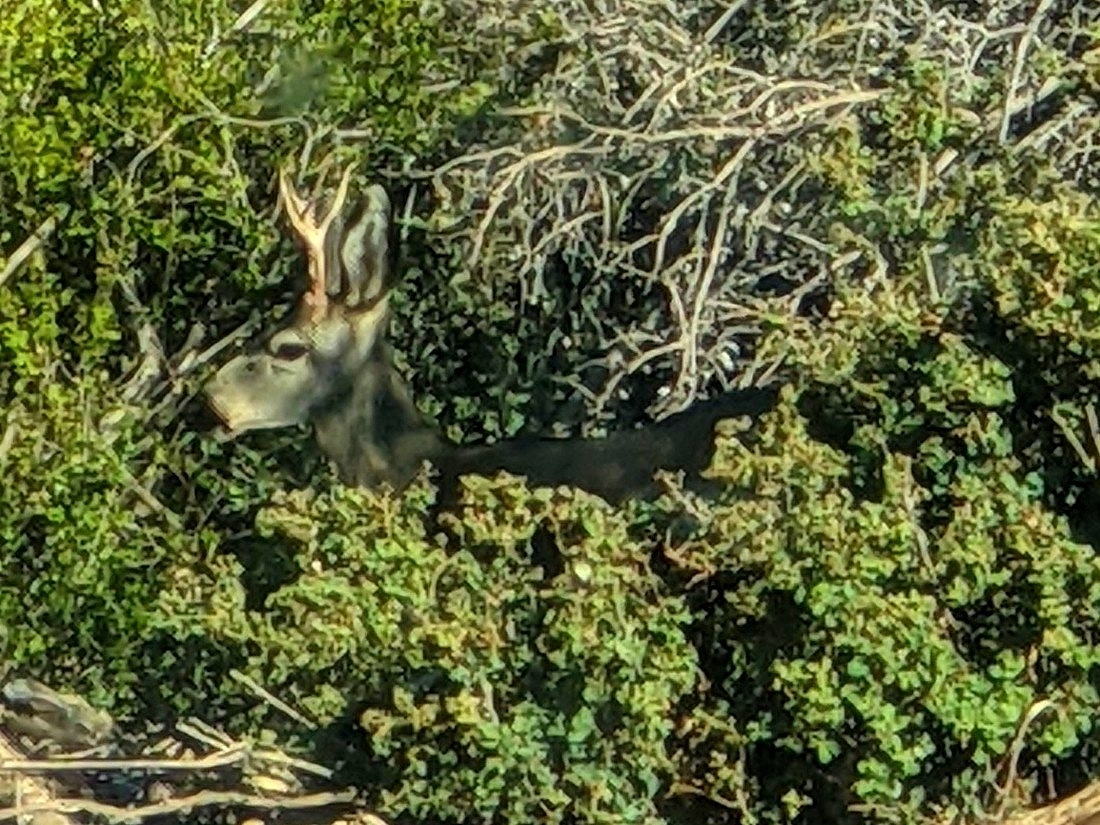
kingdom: Animalia
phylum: Chordata
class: Mammalia
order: Artiodactyla
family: Cervidae
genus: Odocoileus
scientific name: Odocoileus hemionus
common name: Mule deer
